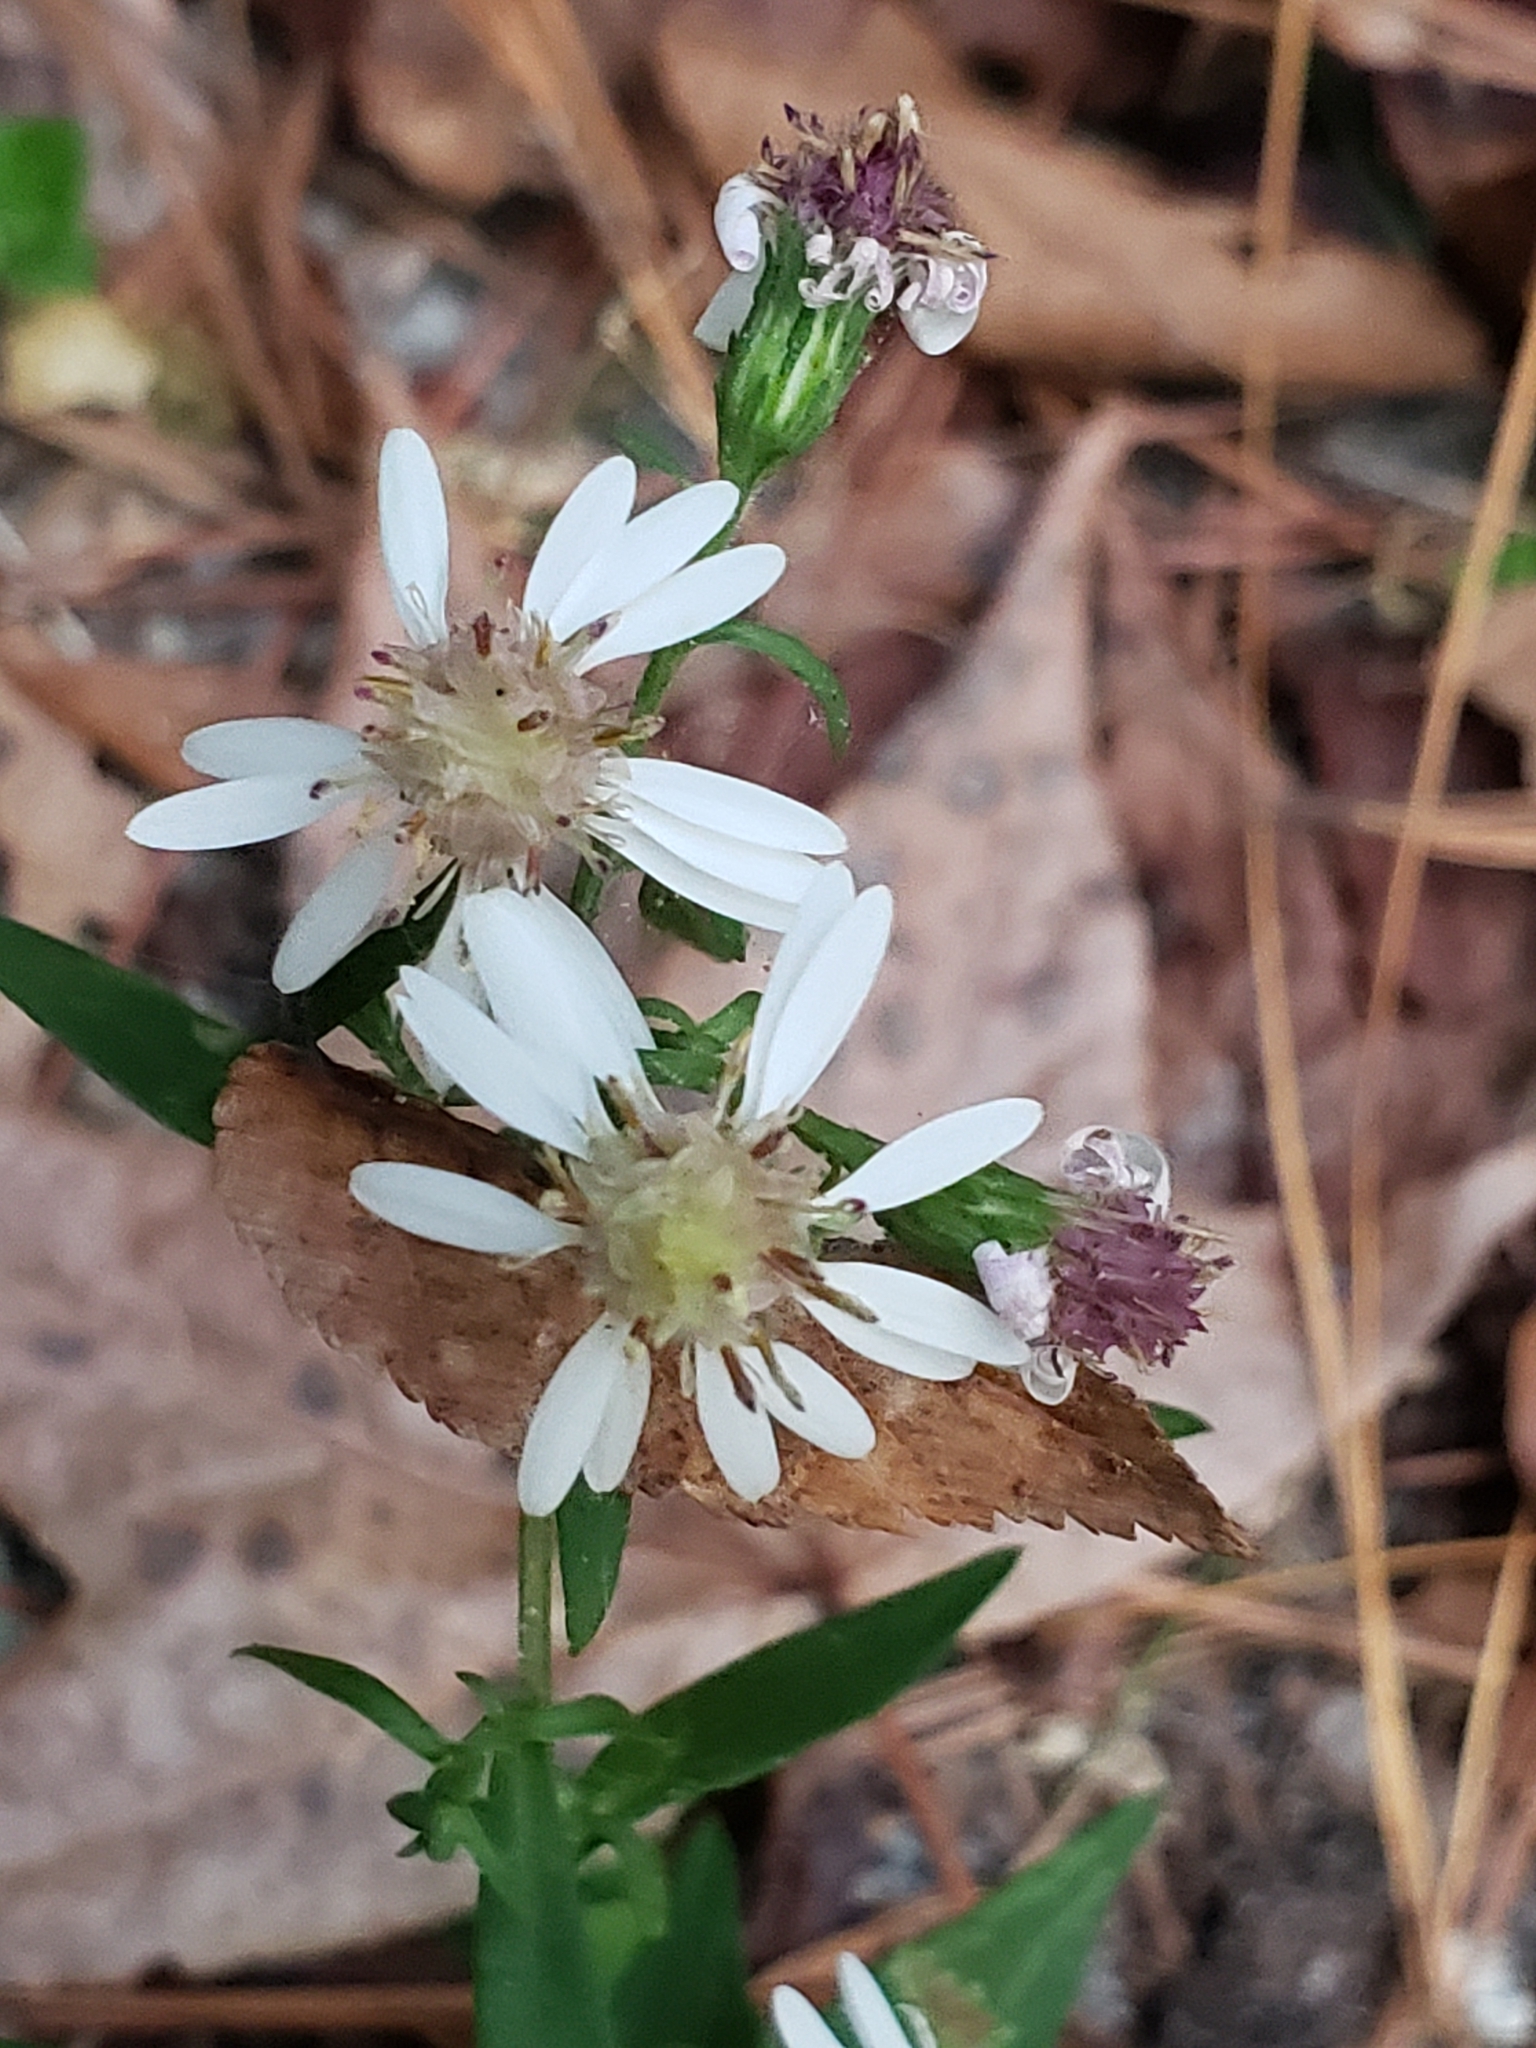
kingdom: Plantae
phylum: Tracheophyta
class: Magnoliopsida
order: Asterales
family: Asteraceae
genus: Symphyotrichum
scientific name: Symphyotrichum lateriflorum
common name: Calico aster
